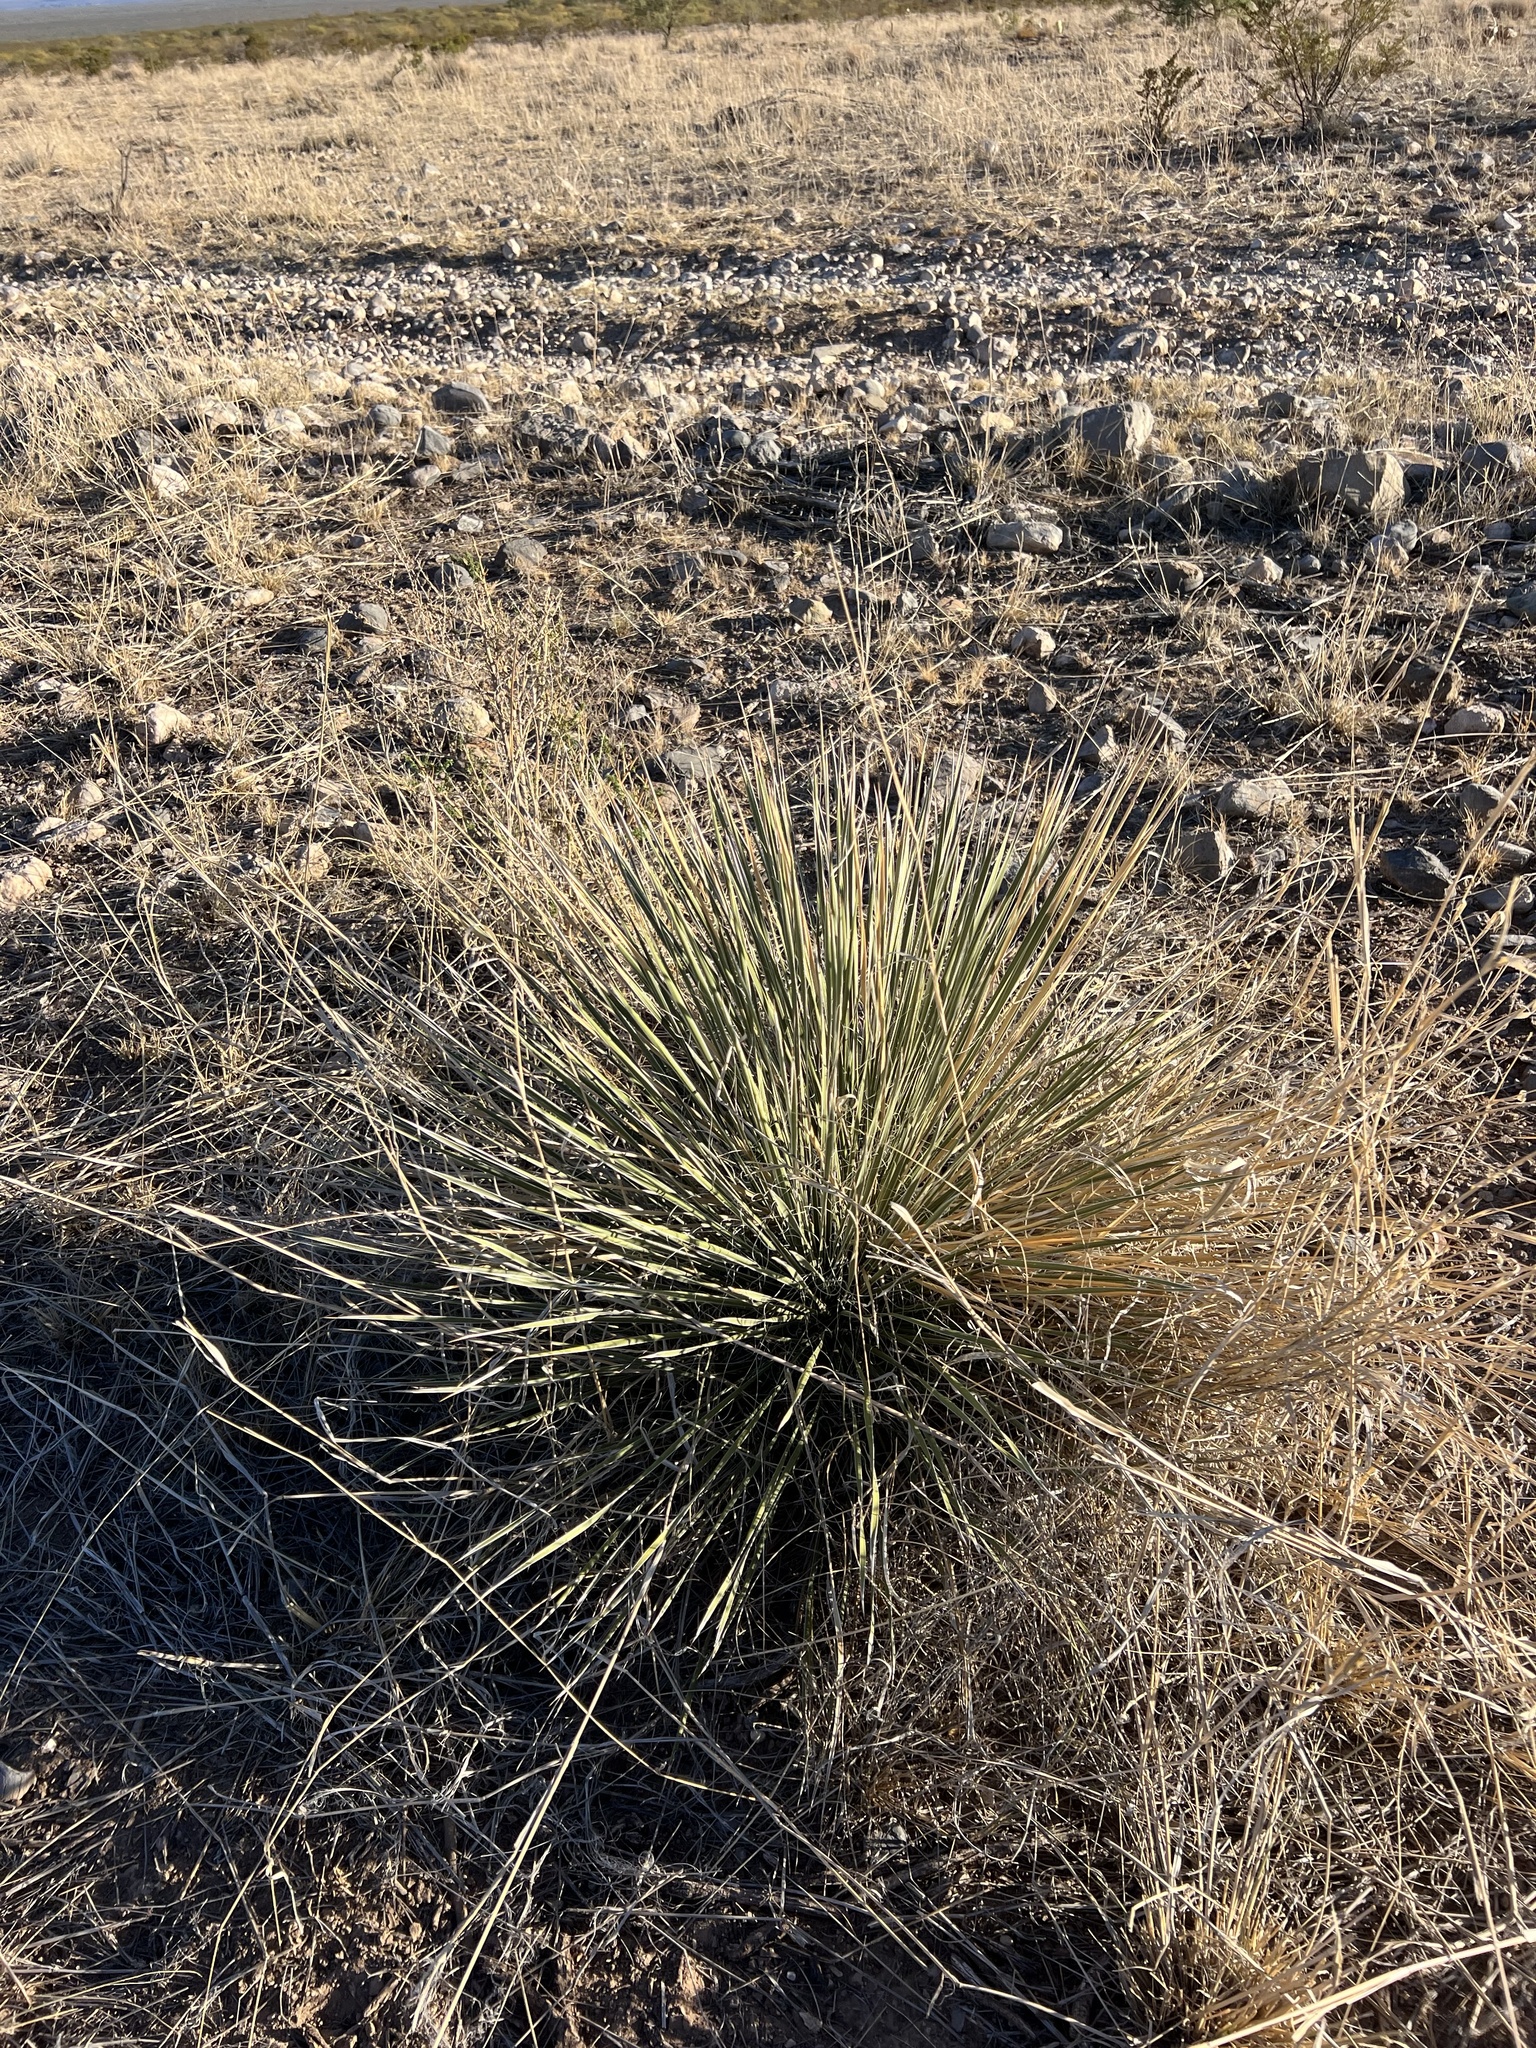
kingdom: Plantae
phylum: Tracheophyta
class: Liliopsida
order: Asparagales
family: Asparagaceae
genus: Yucca
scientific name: Yucca elata
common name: Palmella
